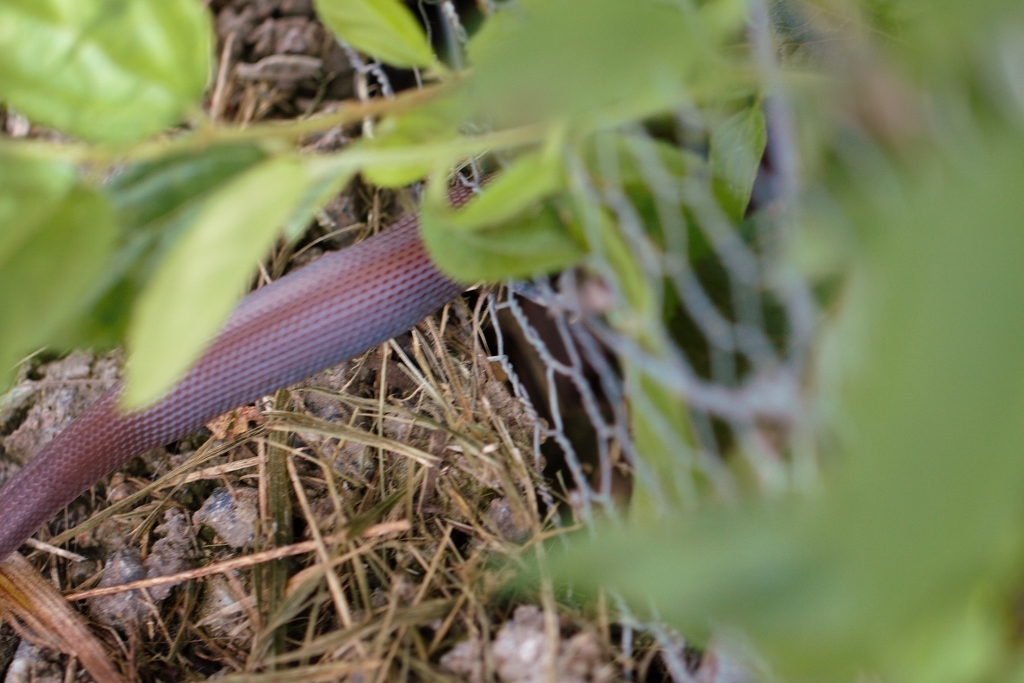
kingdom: Animalia
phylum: Chordata
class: Squamata
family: Lamprophiidae
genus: Boaedon
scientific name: Boaedon capensis
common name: Brown house snake
